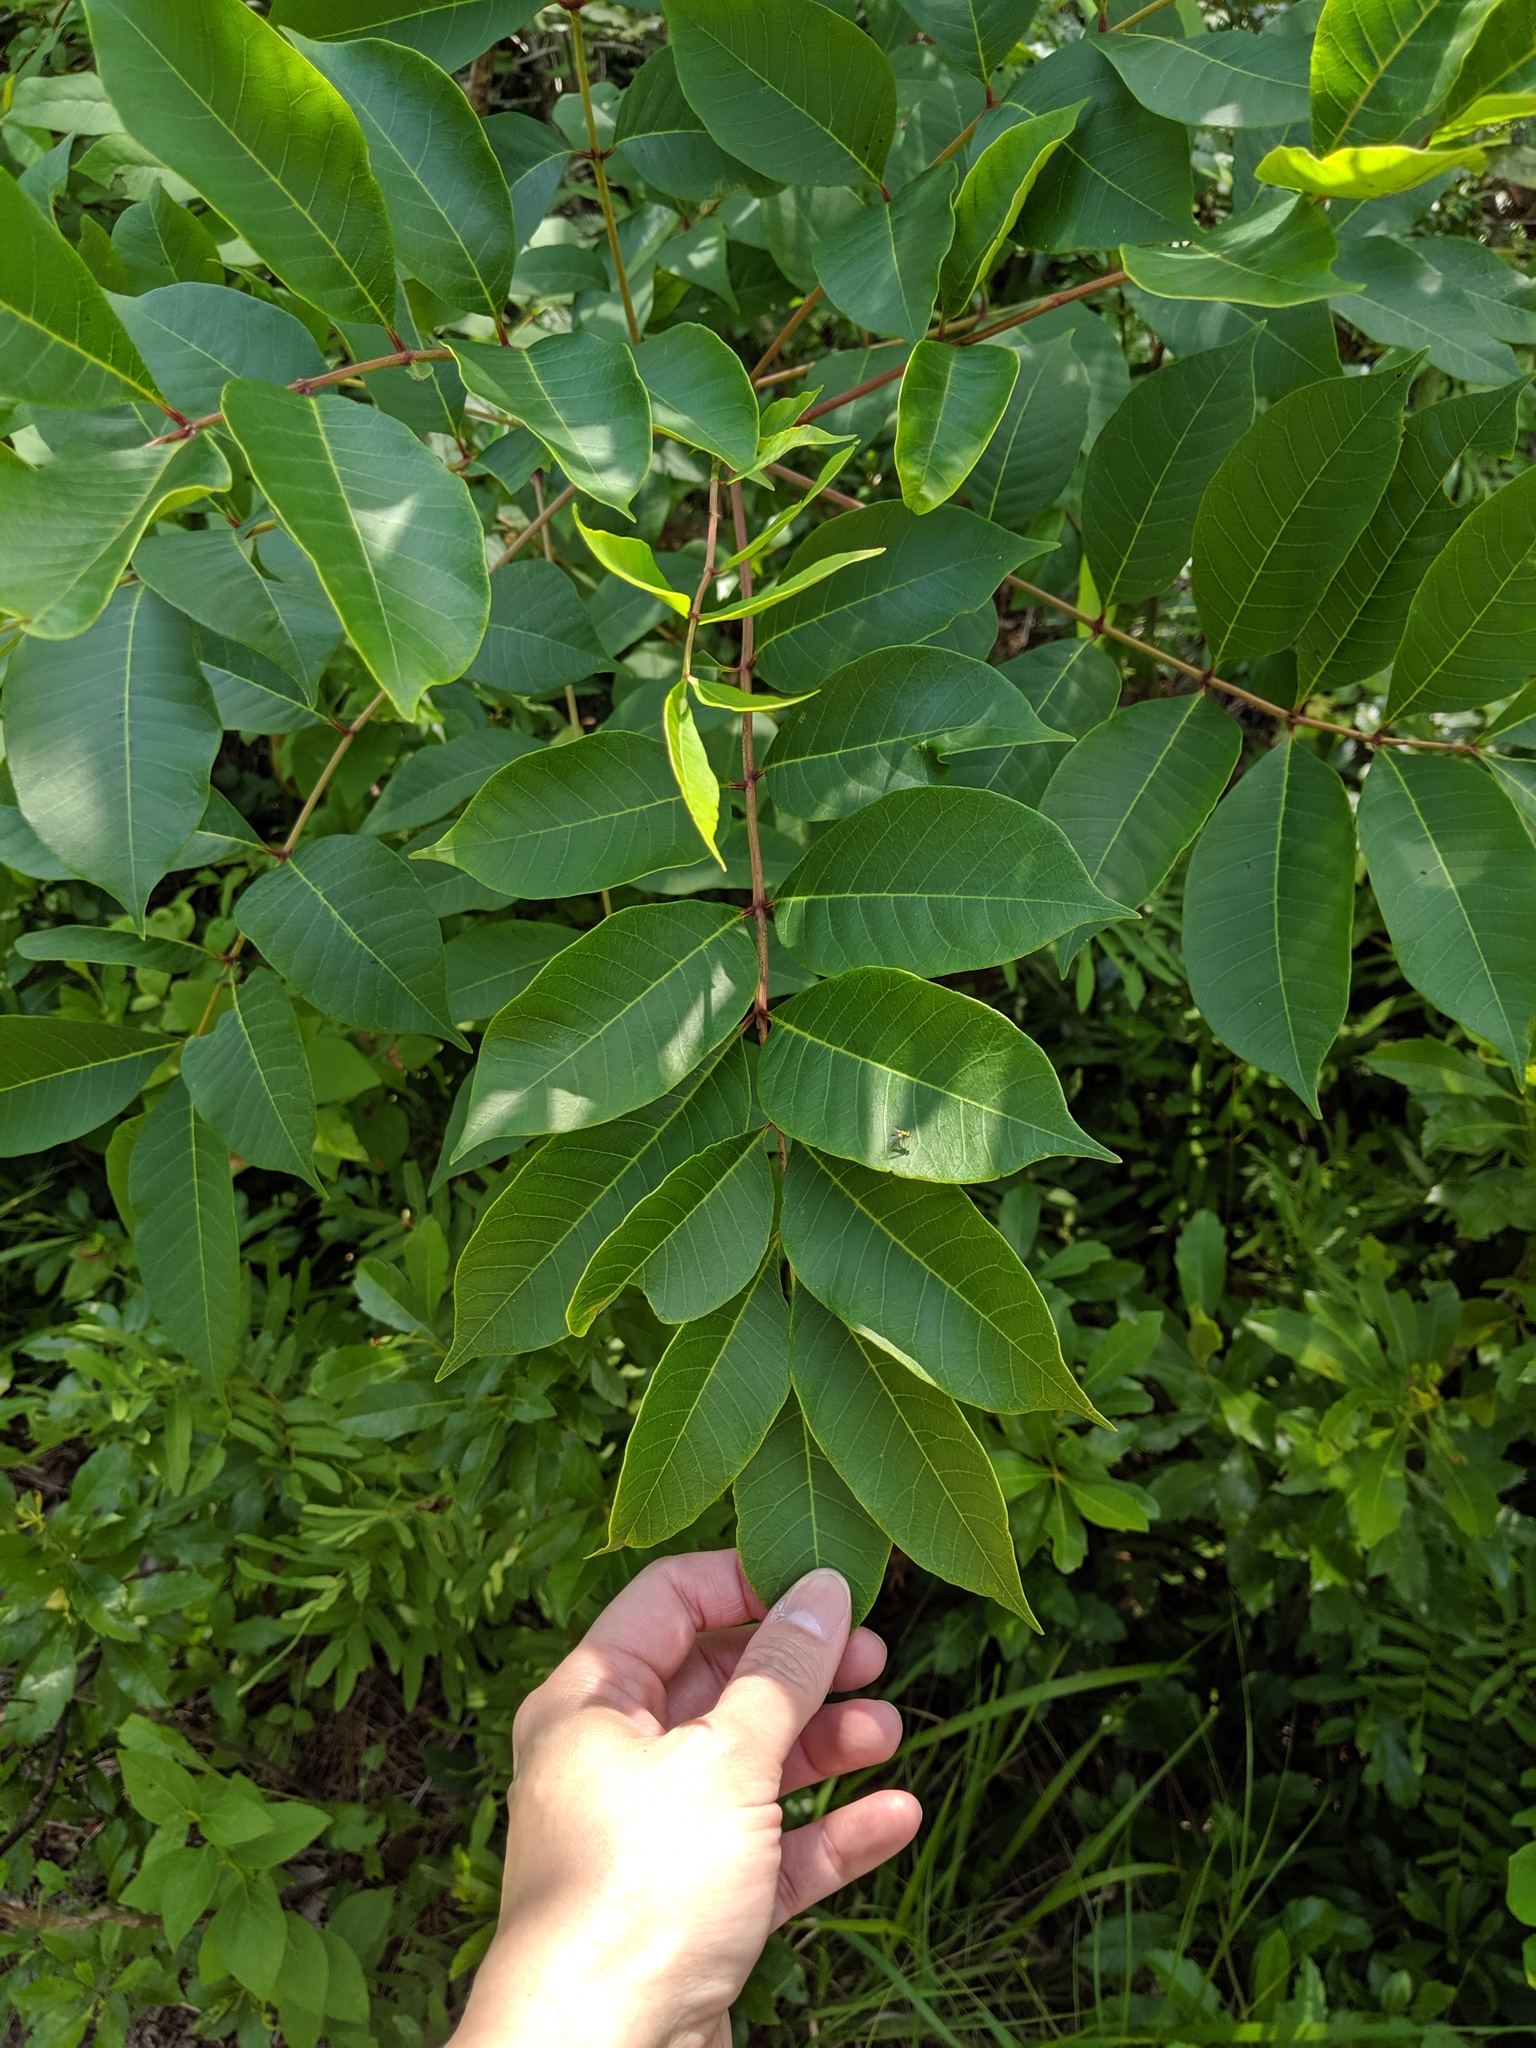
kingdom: Plantae
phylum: Tracheophyta
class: Magnoliopsida
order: Sapindales
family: Anacardiaceae
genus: Toxicodendron
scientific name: Toxicodendron vernix
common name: Poison sumac
